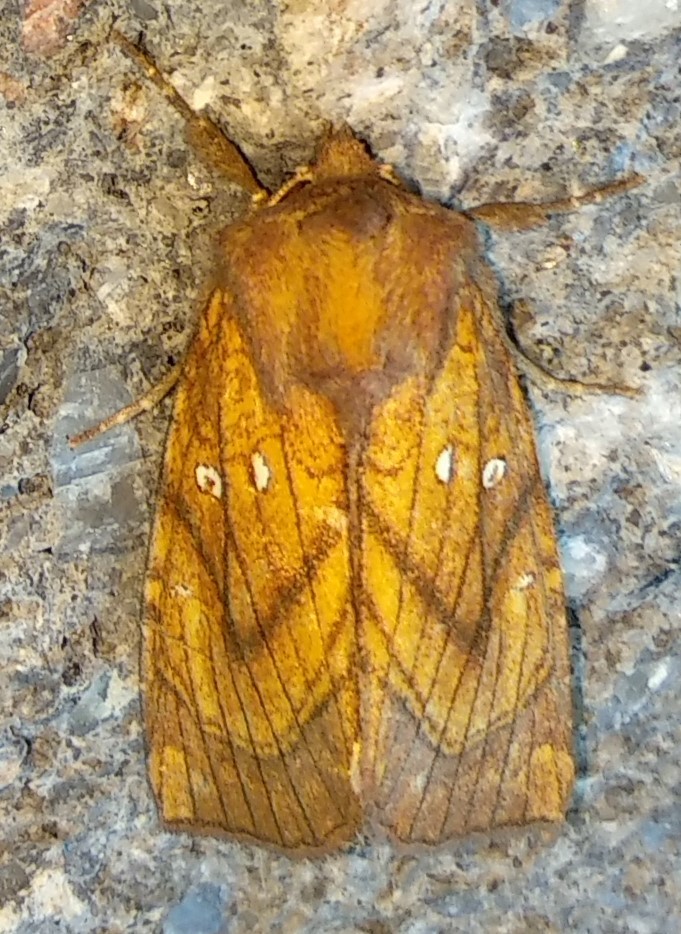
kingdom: Animalia
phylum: Arthropoda
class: Insecta
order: Lepidoptera
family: Noctuidae
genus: Papaipema
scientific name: Papaipema inquaesita
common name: Sensitive fern borer moth
